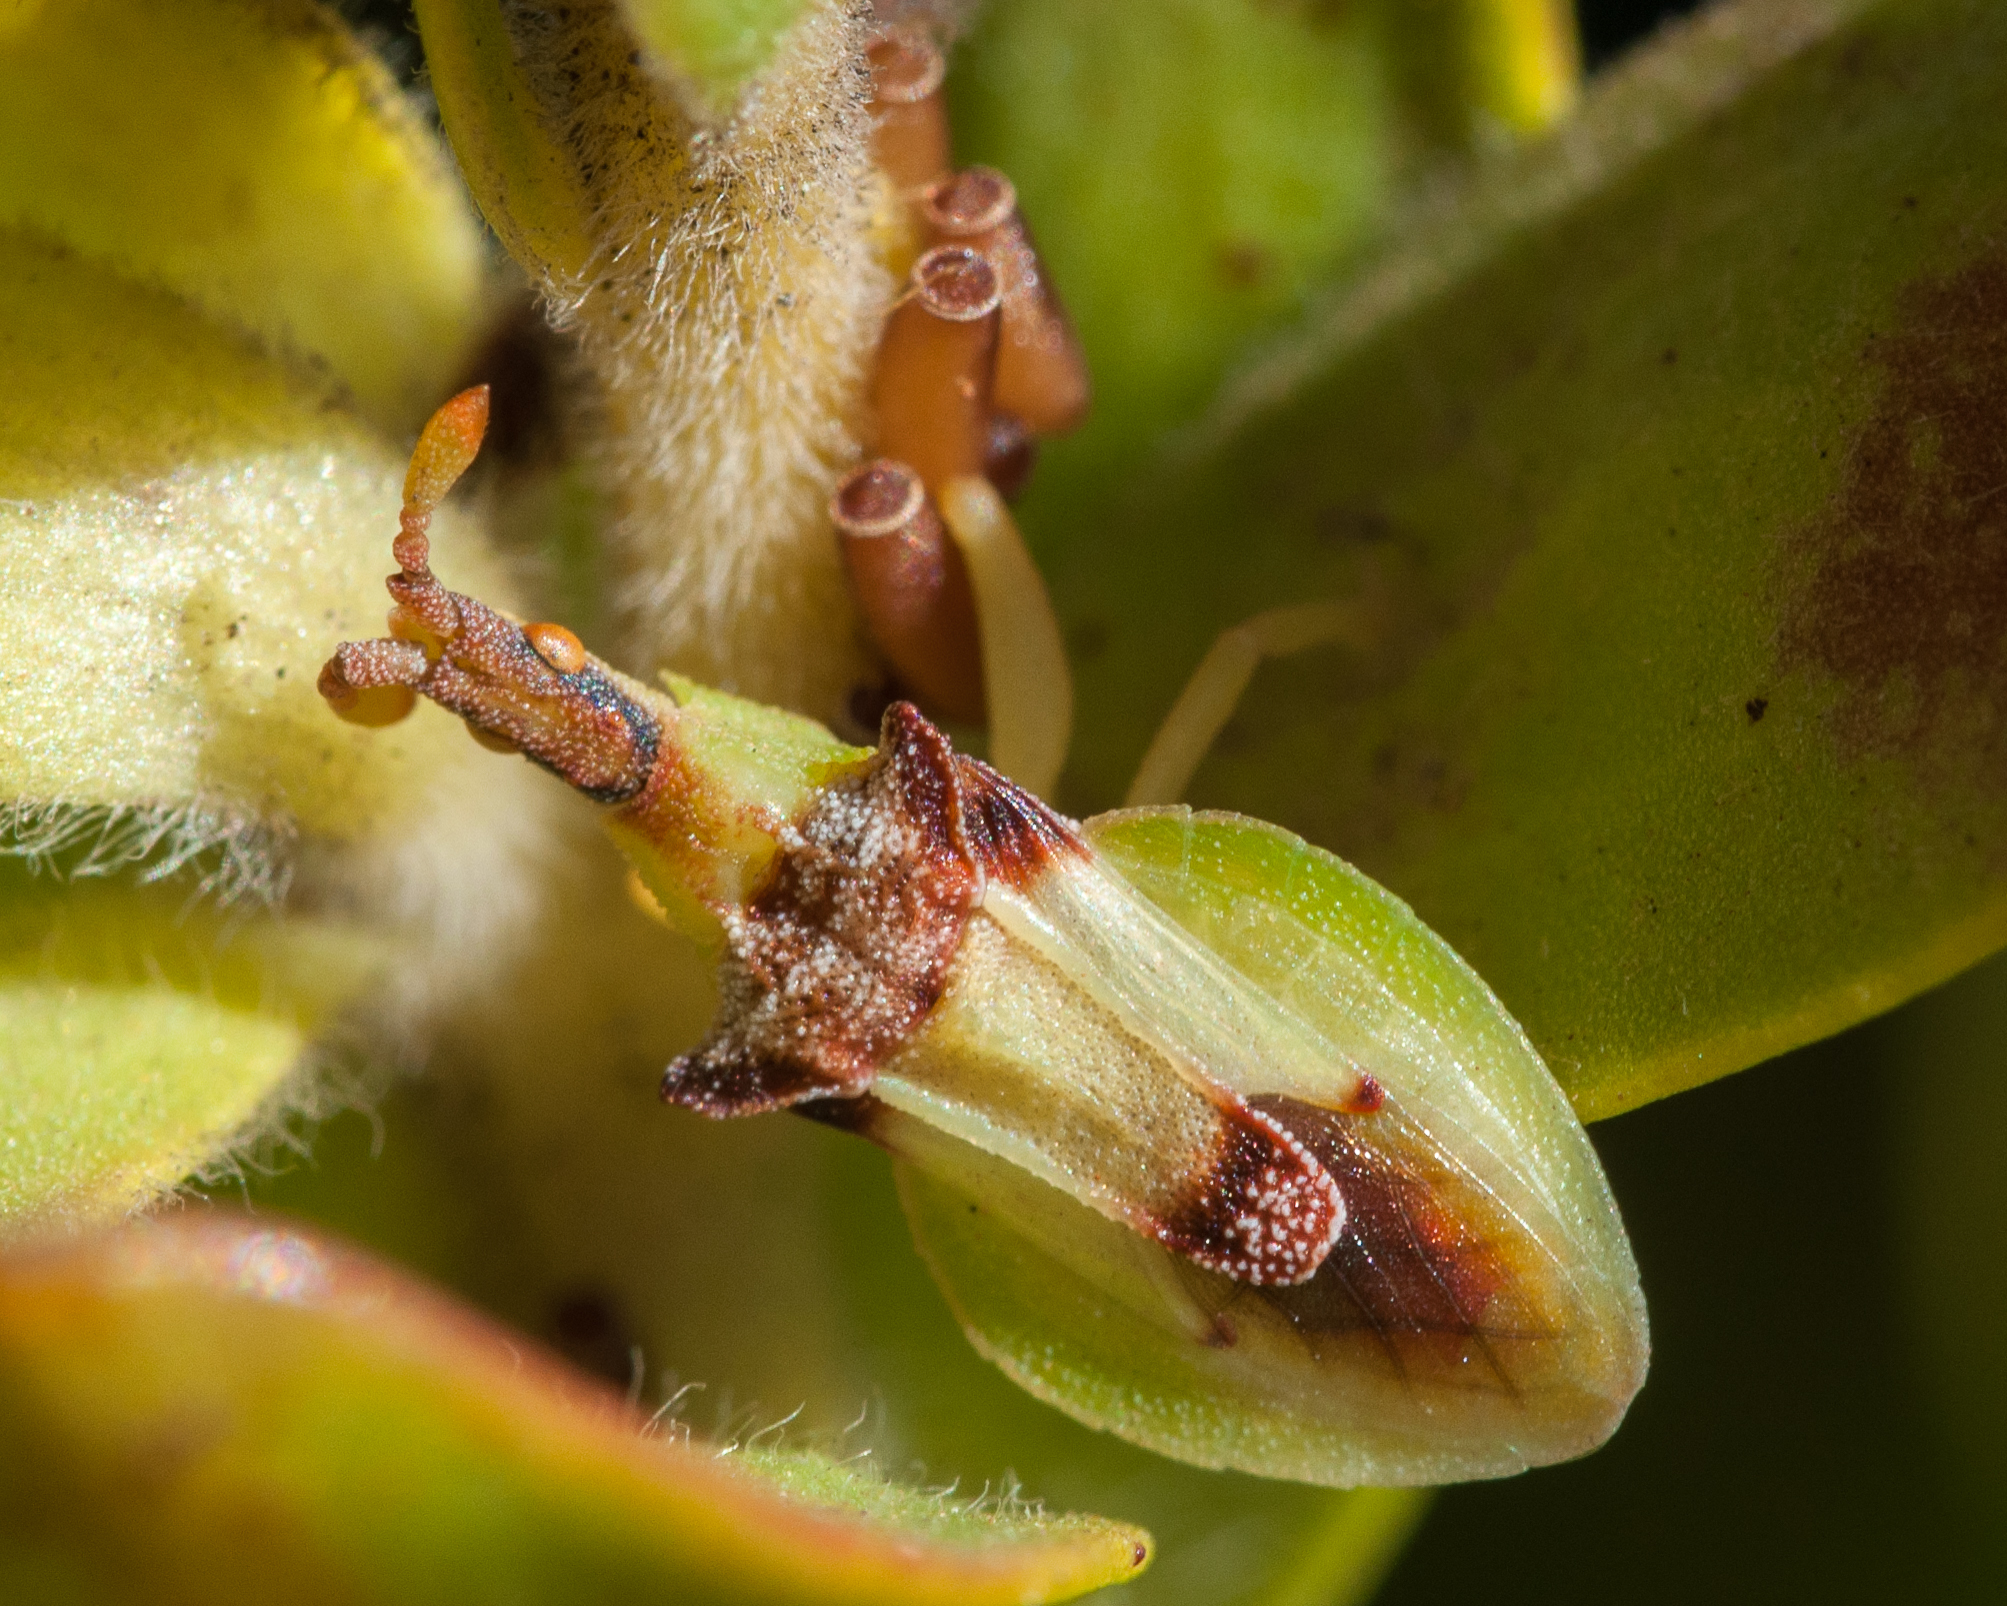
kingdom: Animalia
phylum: Arthropoda
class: Insecta
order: Hemiptera
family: Reduviidae
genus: Narina
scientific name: Narina capensis
